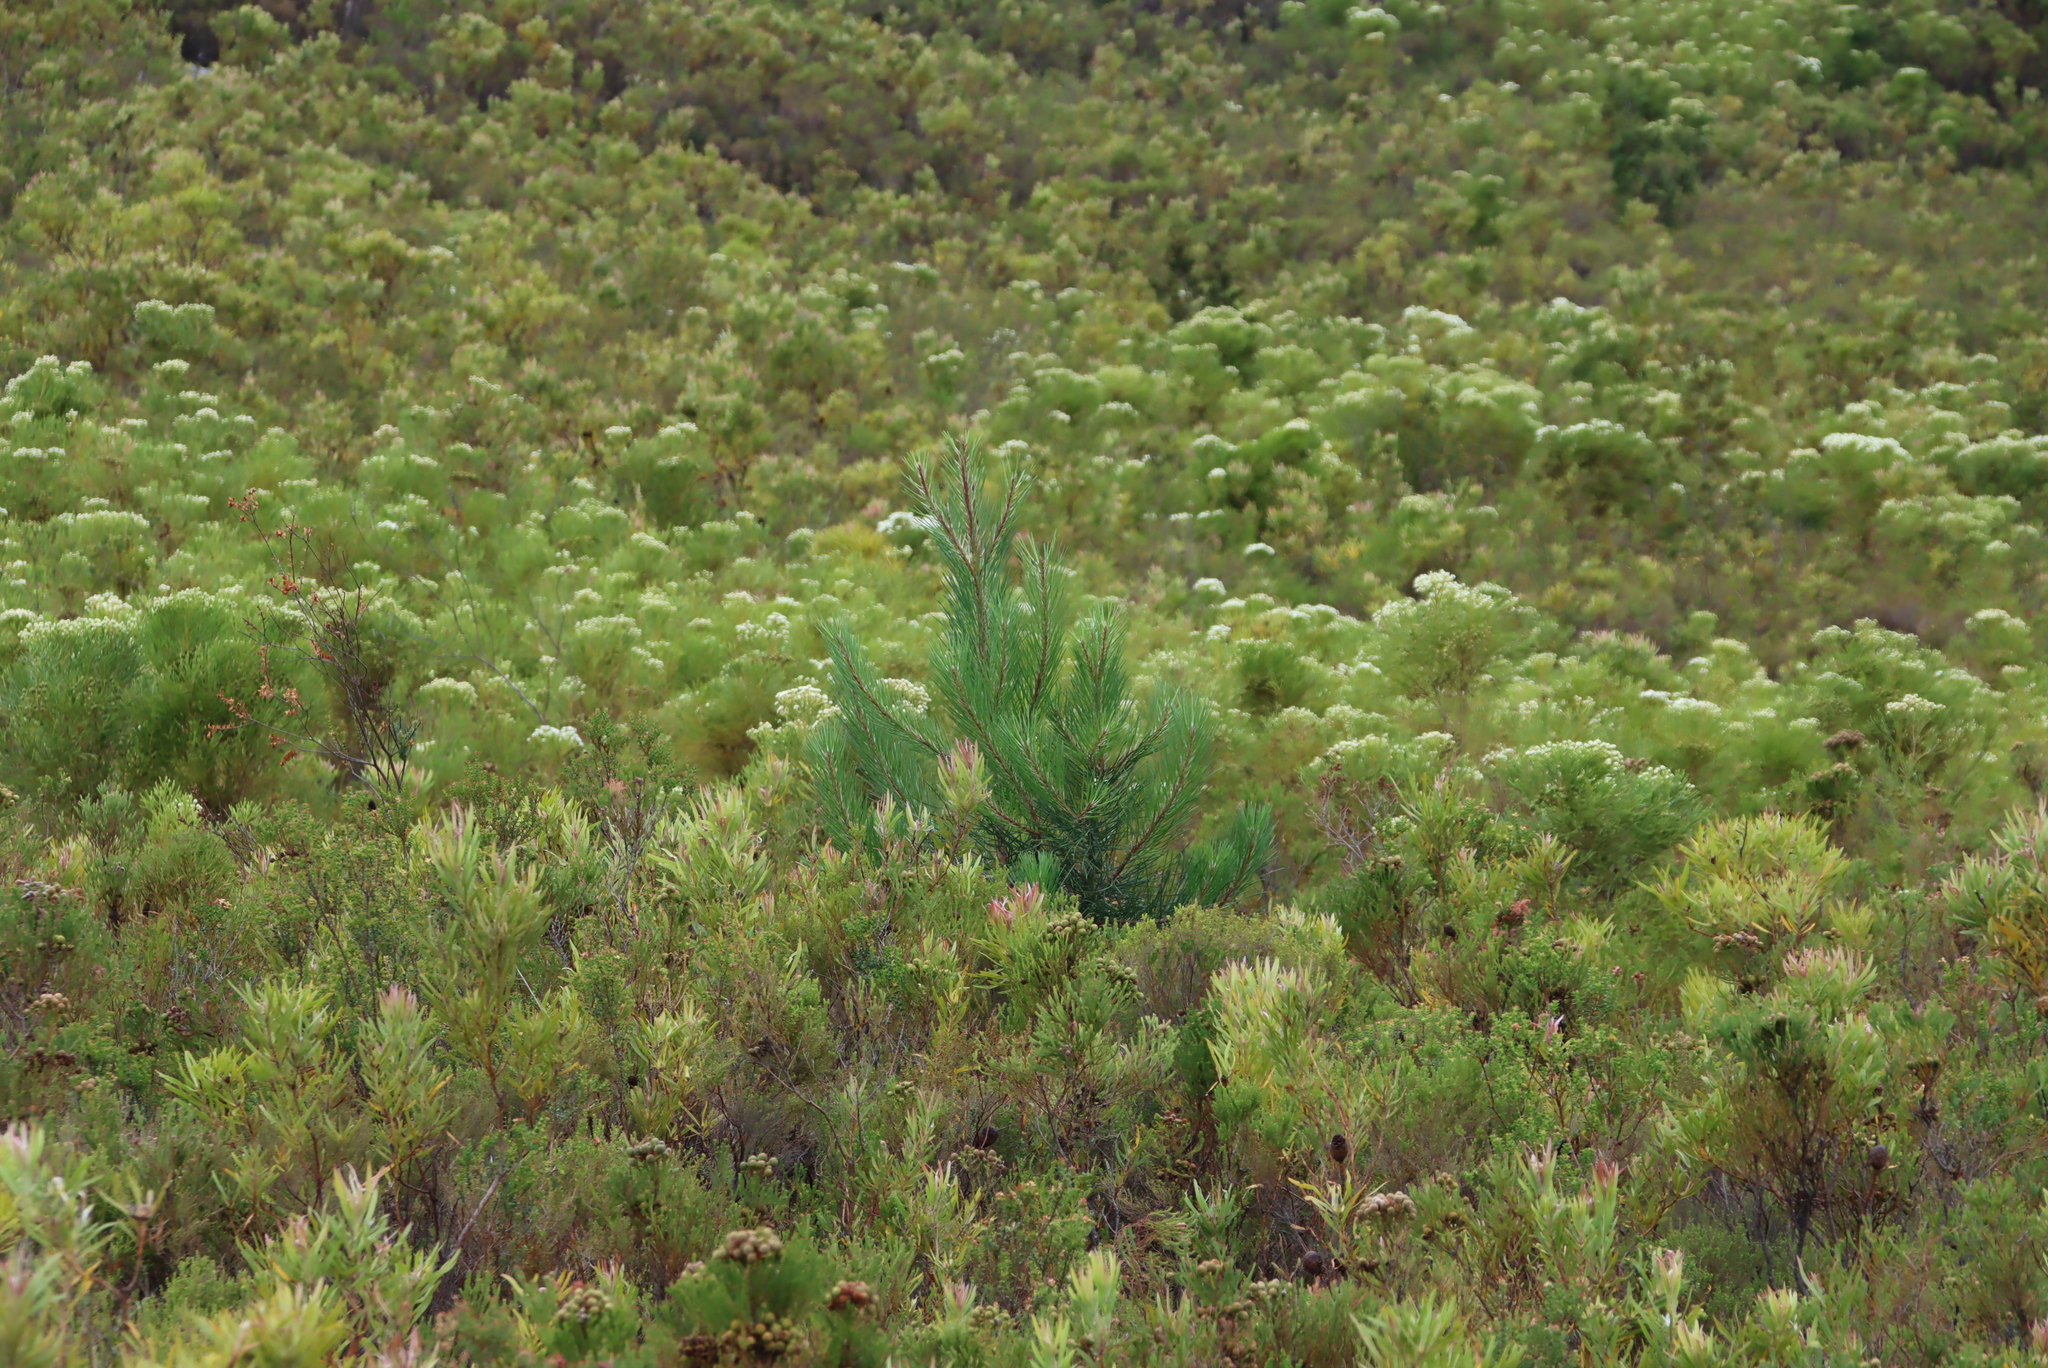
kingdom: Plantae
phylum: Tracheophyta
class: Pinopsida
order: Pinales
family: Pinaceae
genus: Pinus
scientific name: Pinus pinaster
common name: Maritime pine
